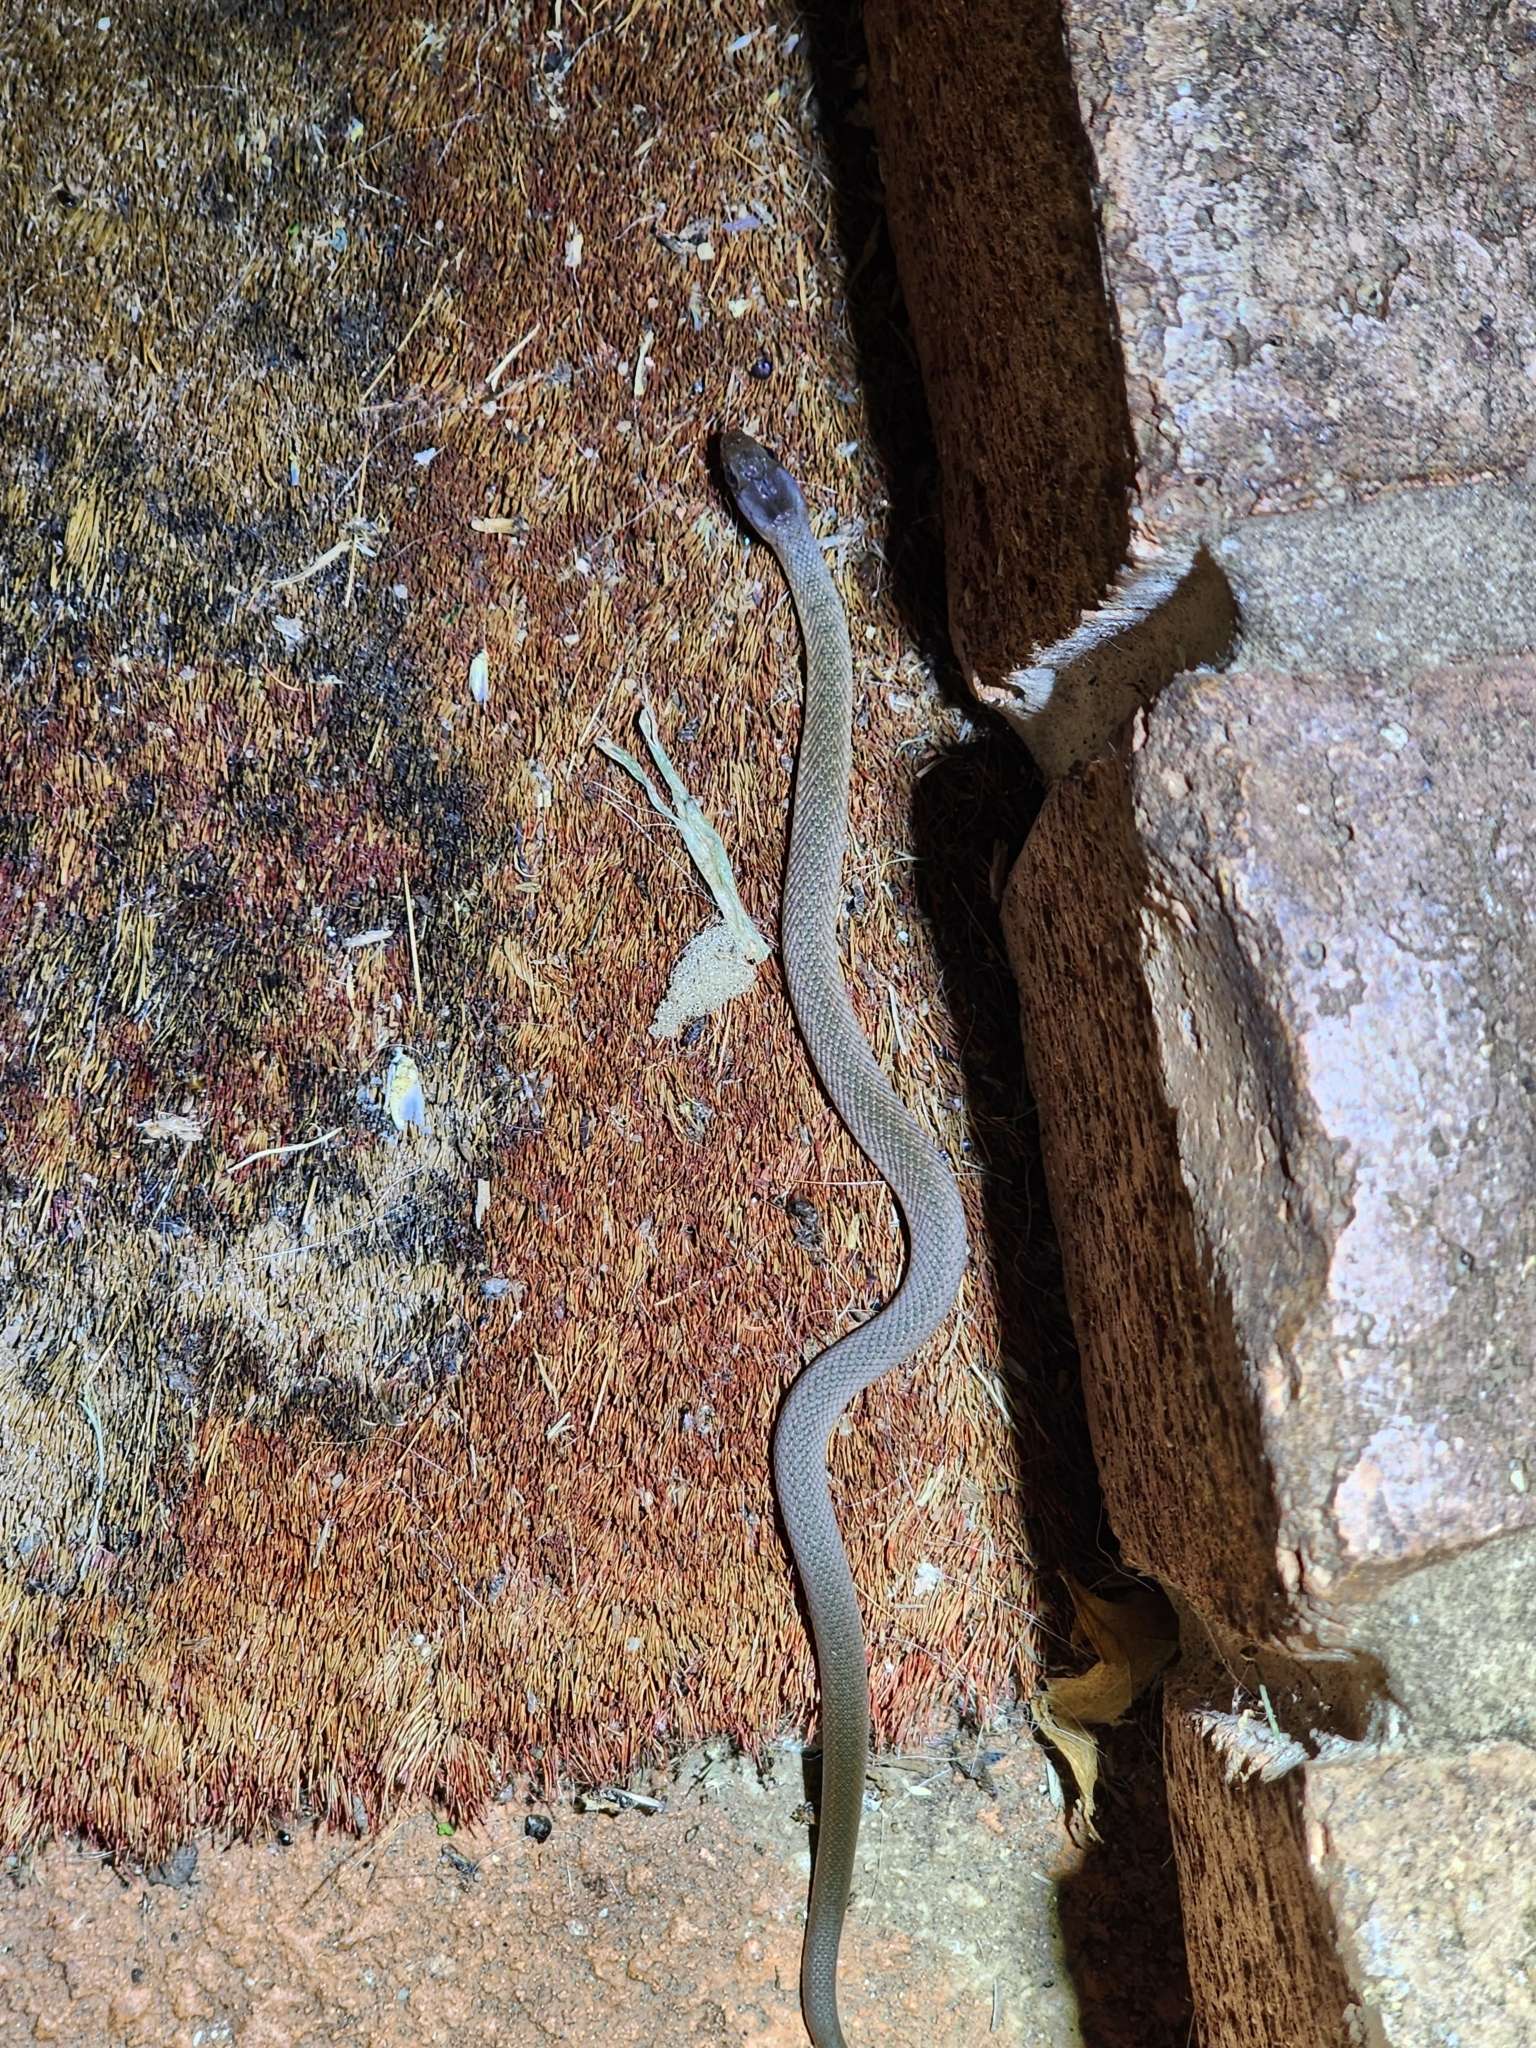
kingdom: Animalia
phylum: Chordata
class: Squamata
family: Colubridae
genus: Tropidonophis
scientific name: Tropidonophis mairii
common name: Common keelback
